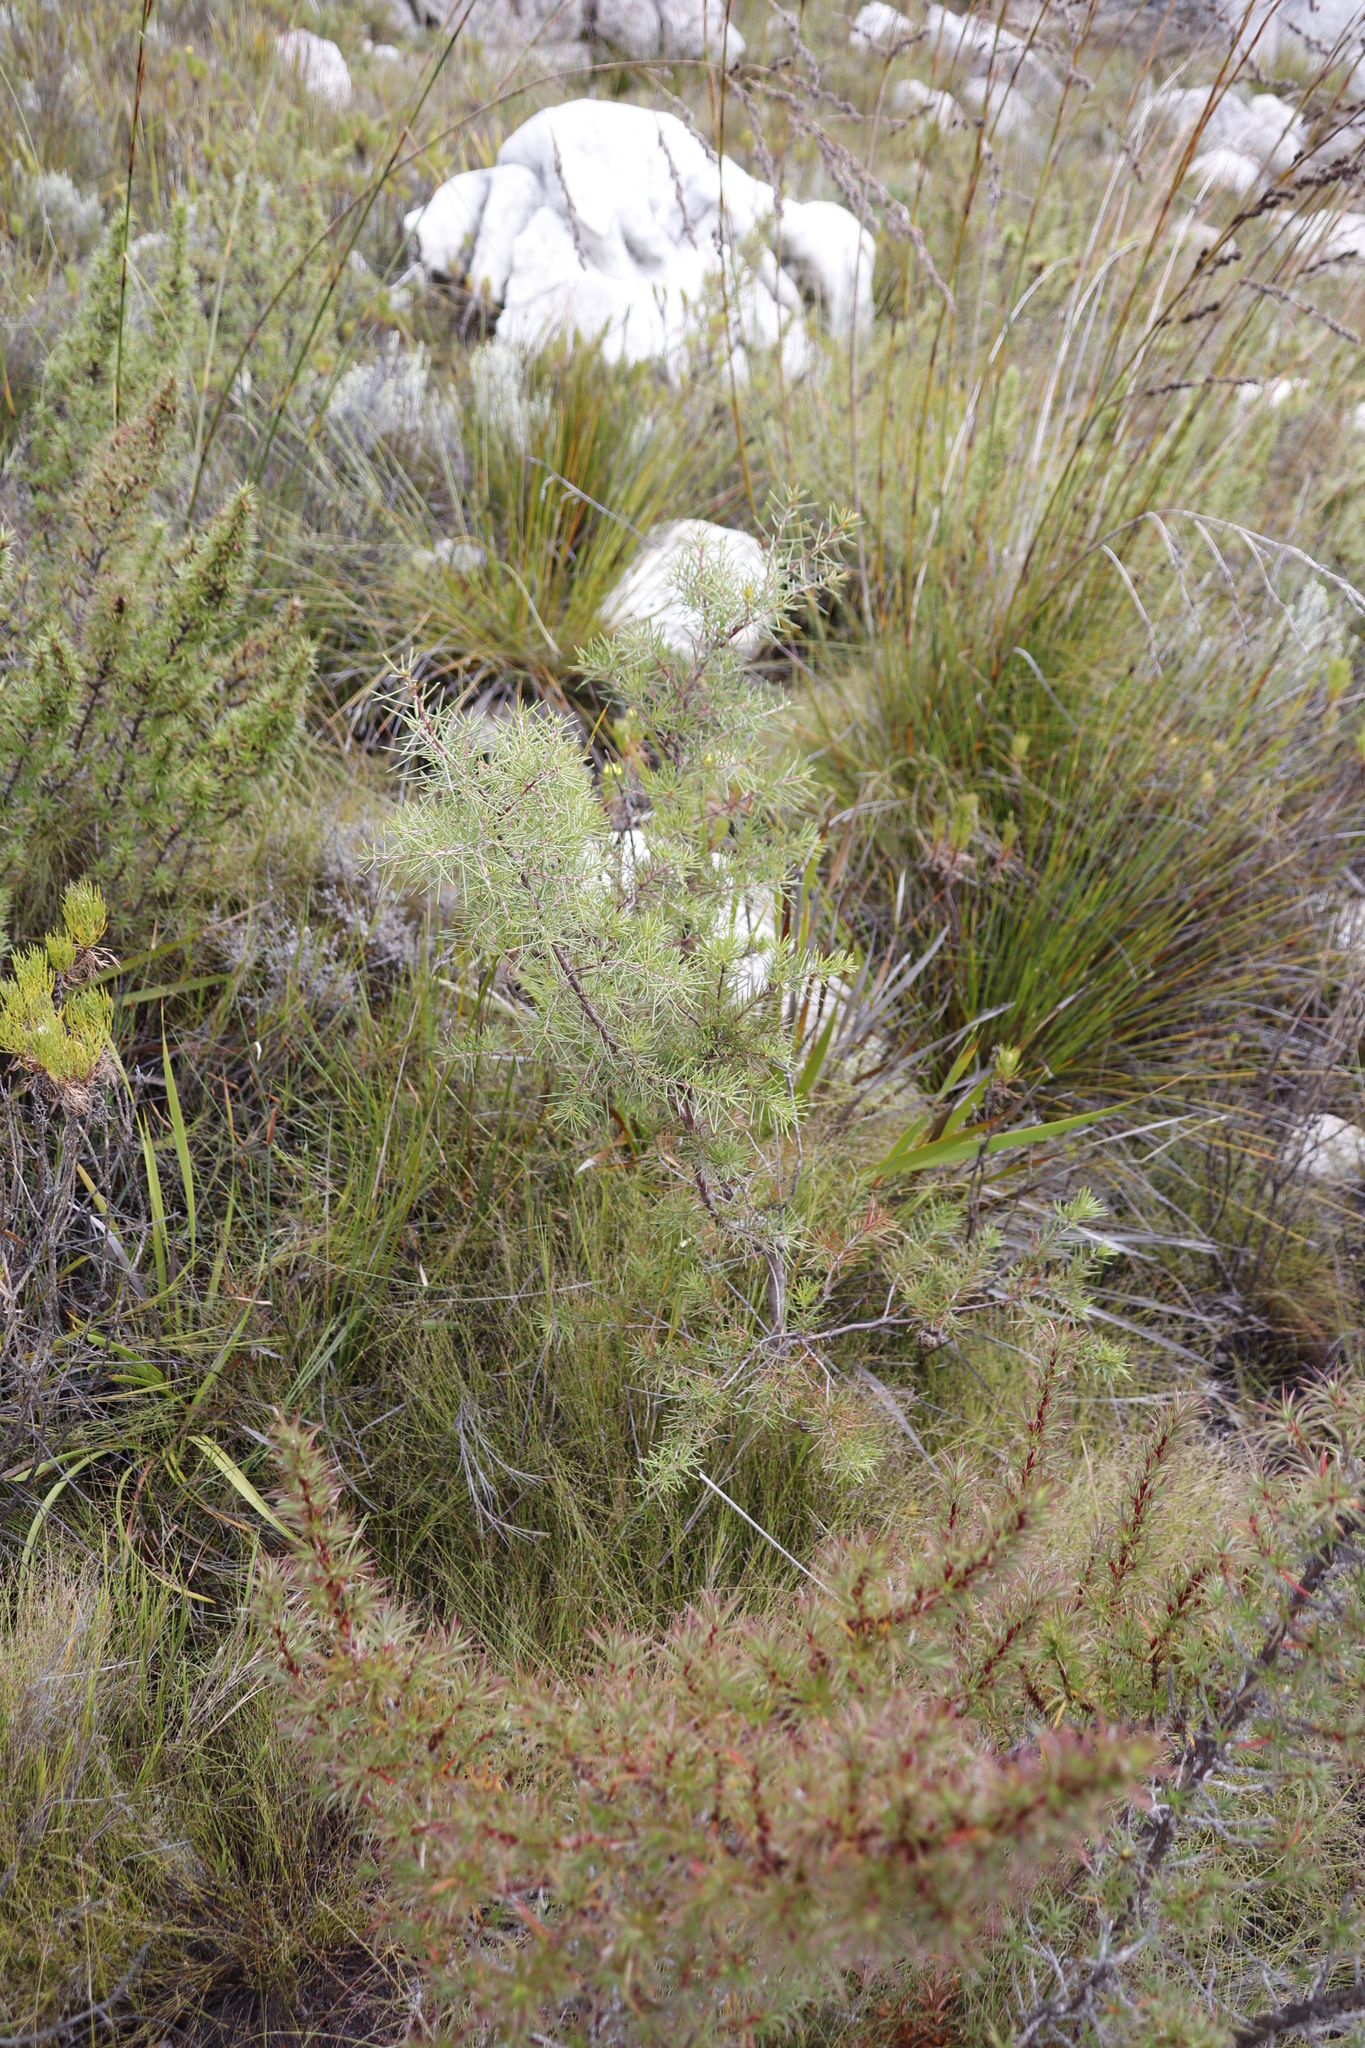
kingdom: Plantae
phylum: Tracheophyta
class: Magnoliopsida
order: Proteales
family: Proteaceae
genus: Hakea
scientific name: Hakea sericea
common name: Needle bush
